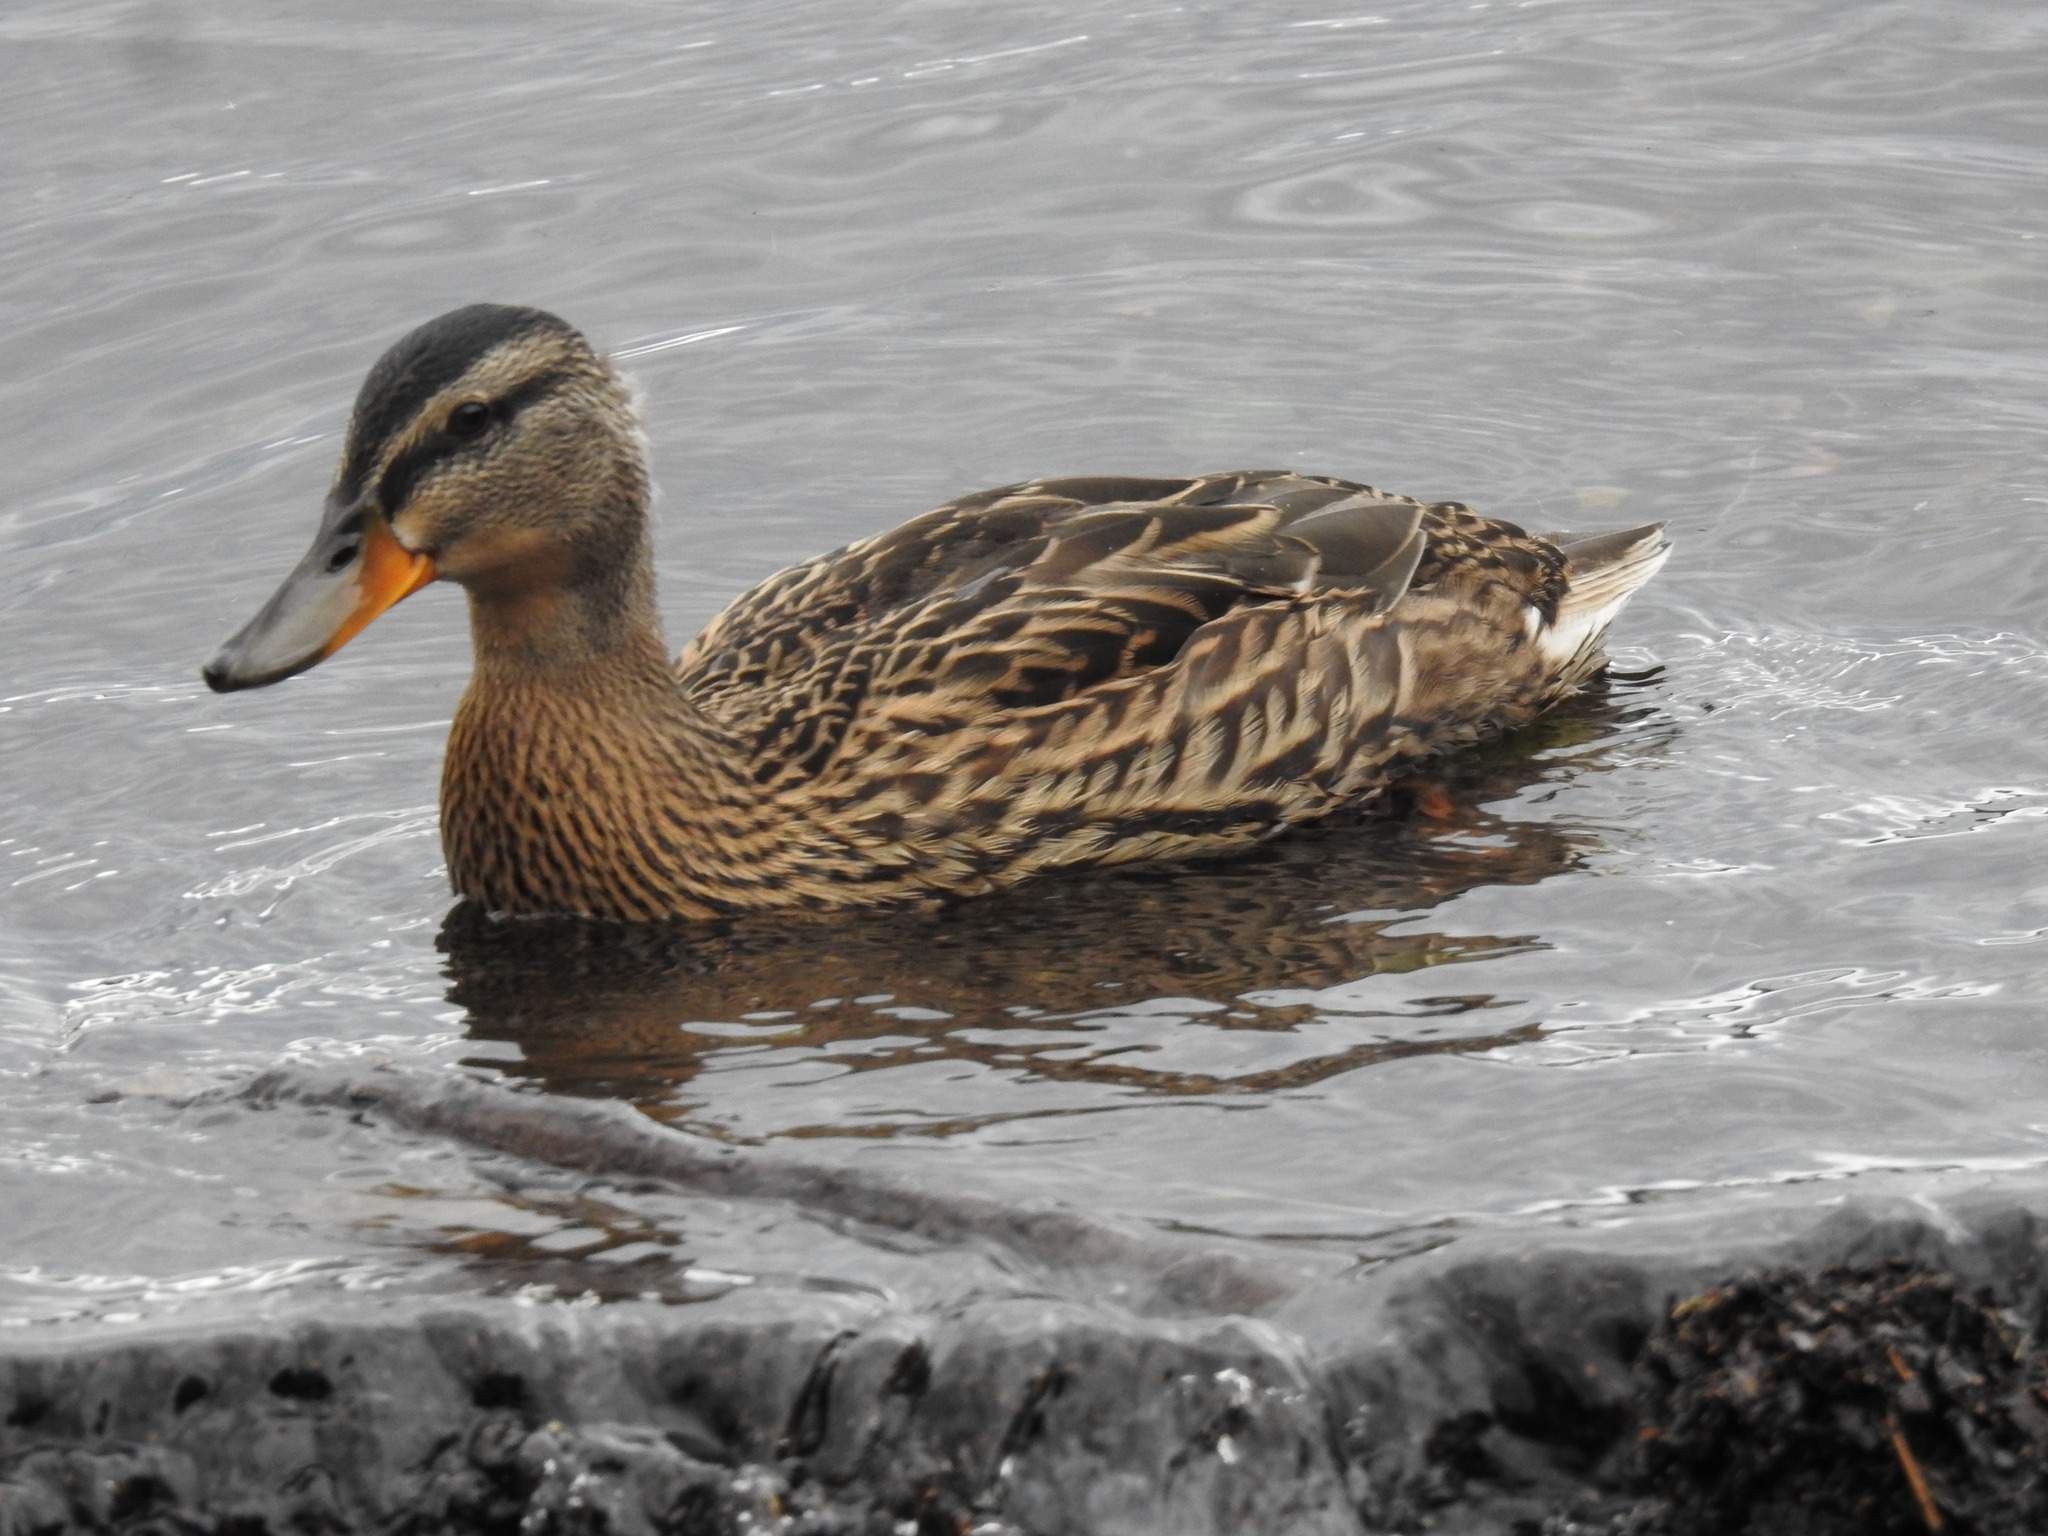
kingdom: Animalia
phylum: Chordata
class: Aves
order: Anseriformes
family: Anatidae
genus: Anas
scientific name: Anas platyrhynchos
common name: Mallard
